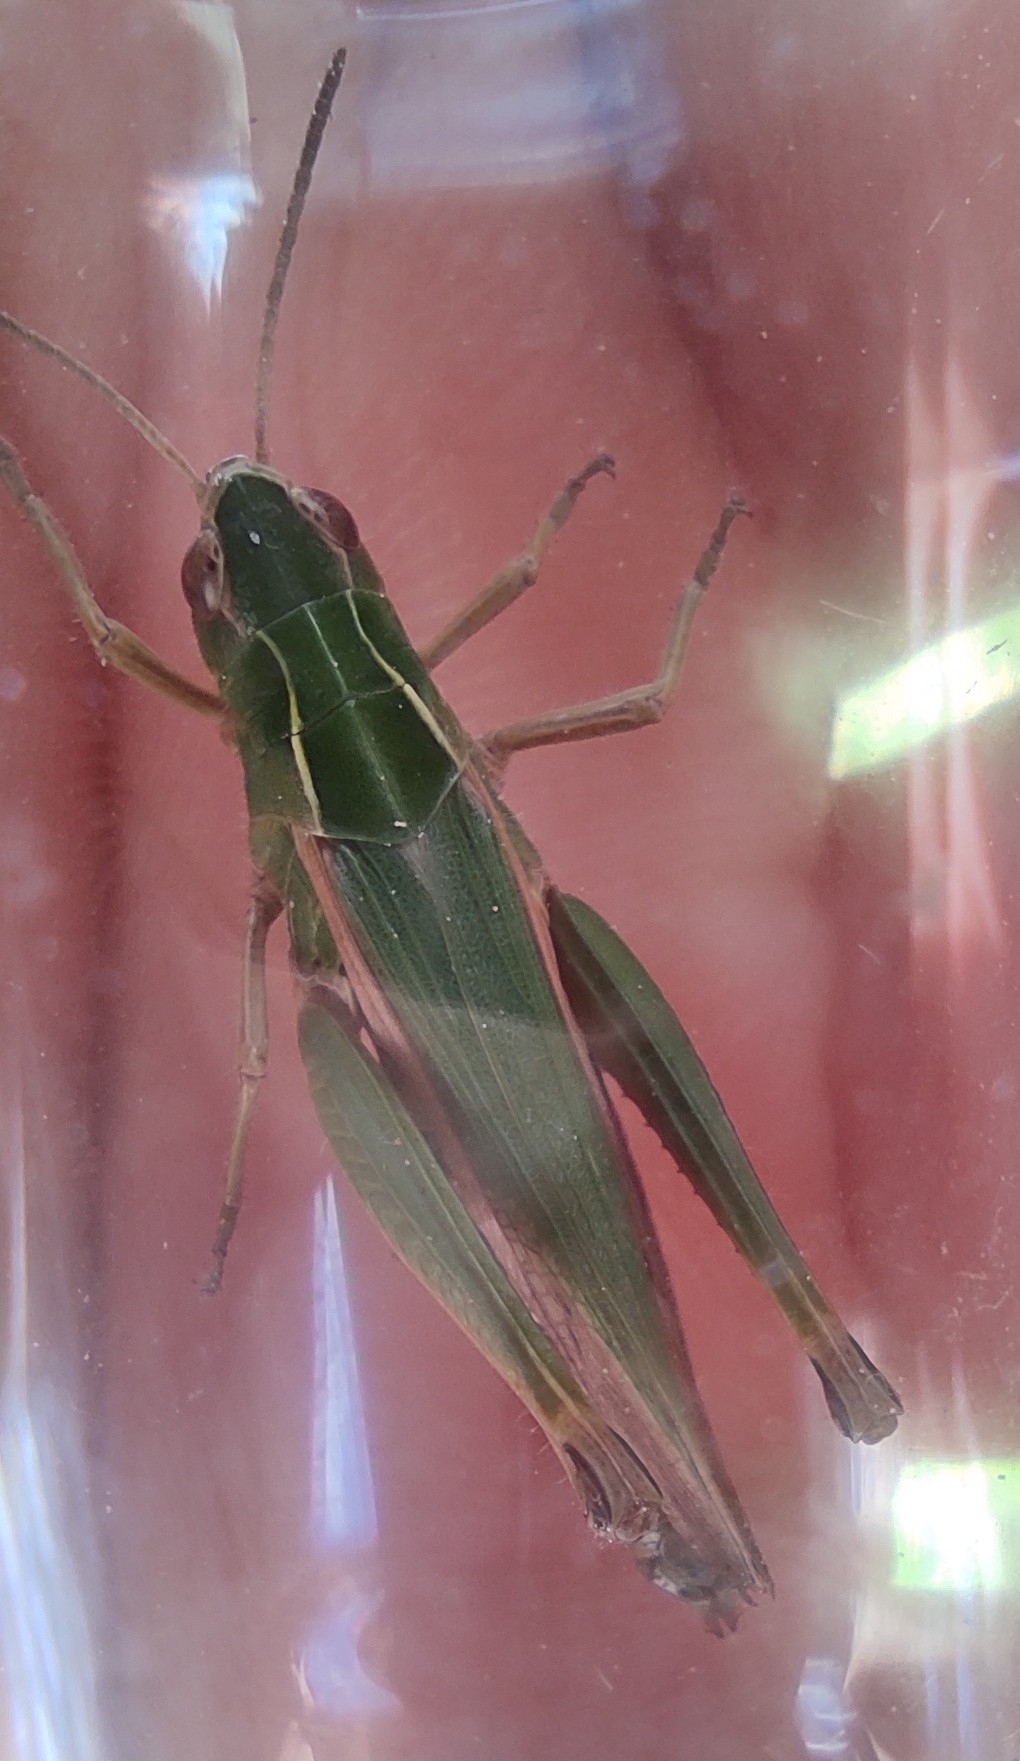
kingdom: Animalia
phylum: Arthropoda
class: Insecta
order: Orthoptera
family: Acrididae
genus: Omocestus
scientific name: Omocestus viridulus
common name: Common green grasshopper
